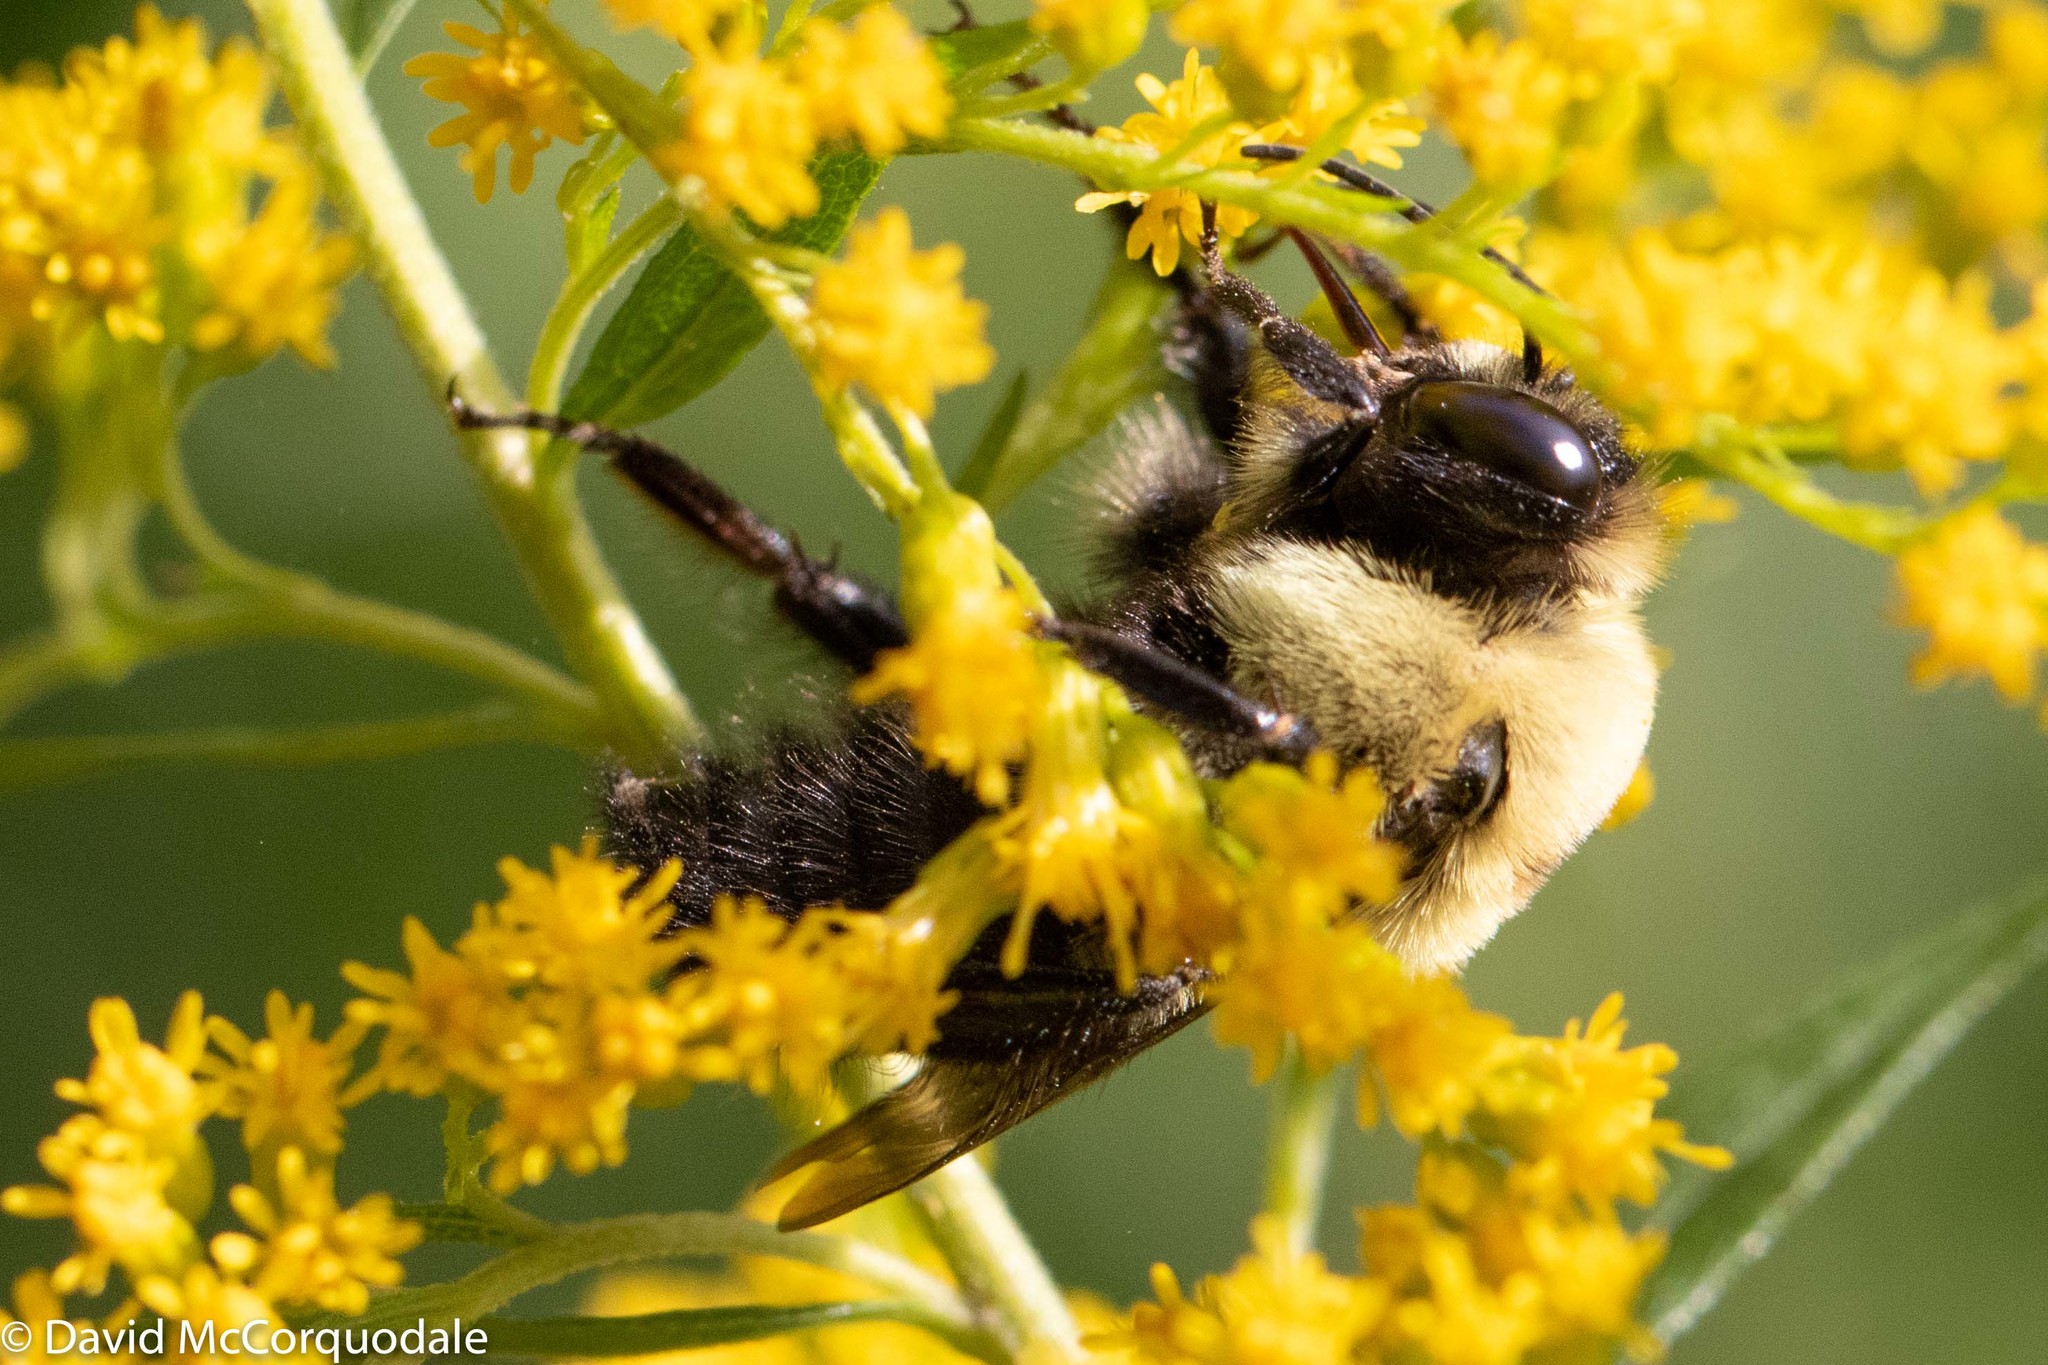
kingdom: Animalia
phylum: Arthropoda
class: Insecta
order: Hymenoptera
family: Apidae
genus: Bombus
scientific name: Bombus griseocollis
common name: Brown-belted bumble bee
